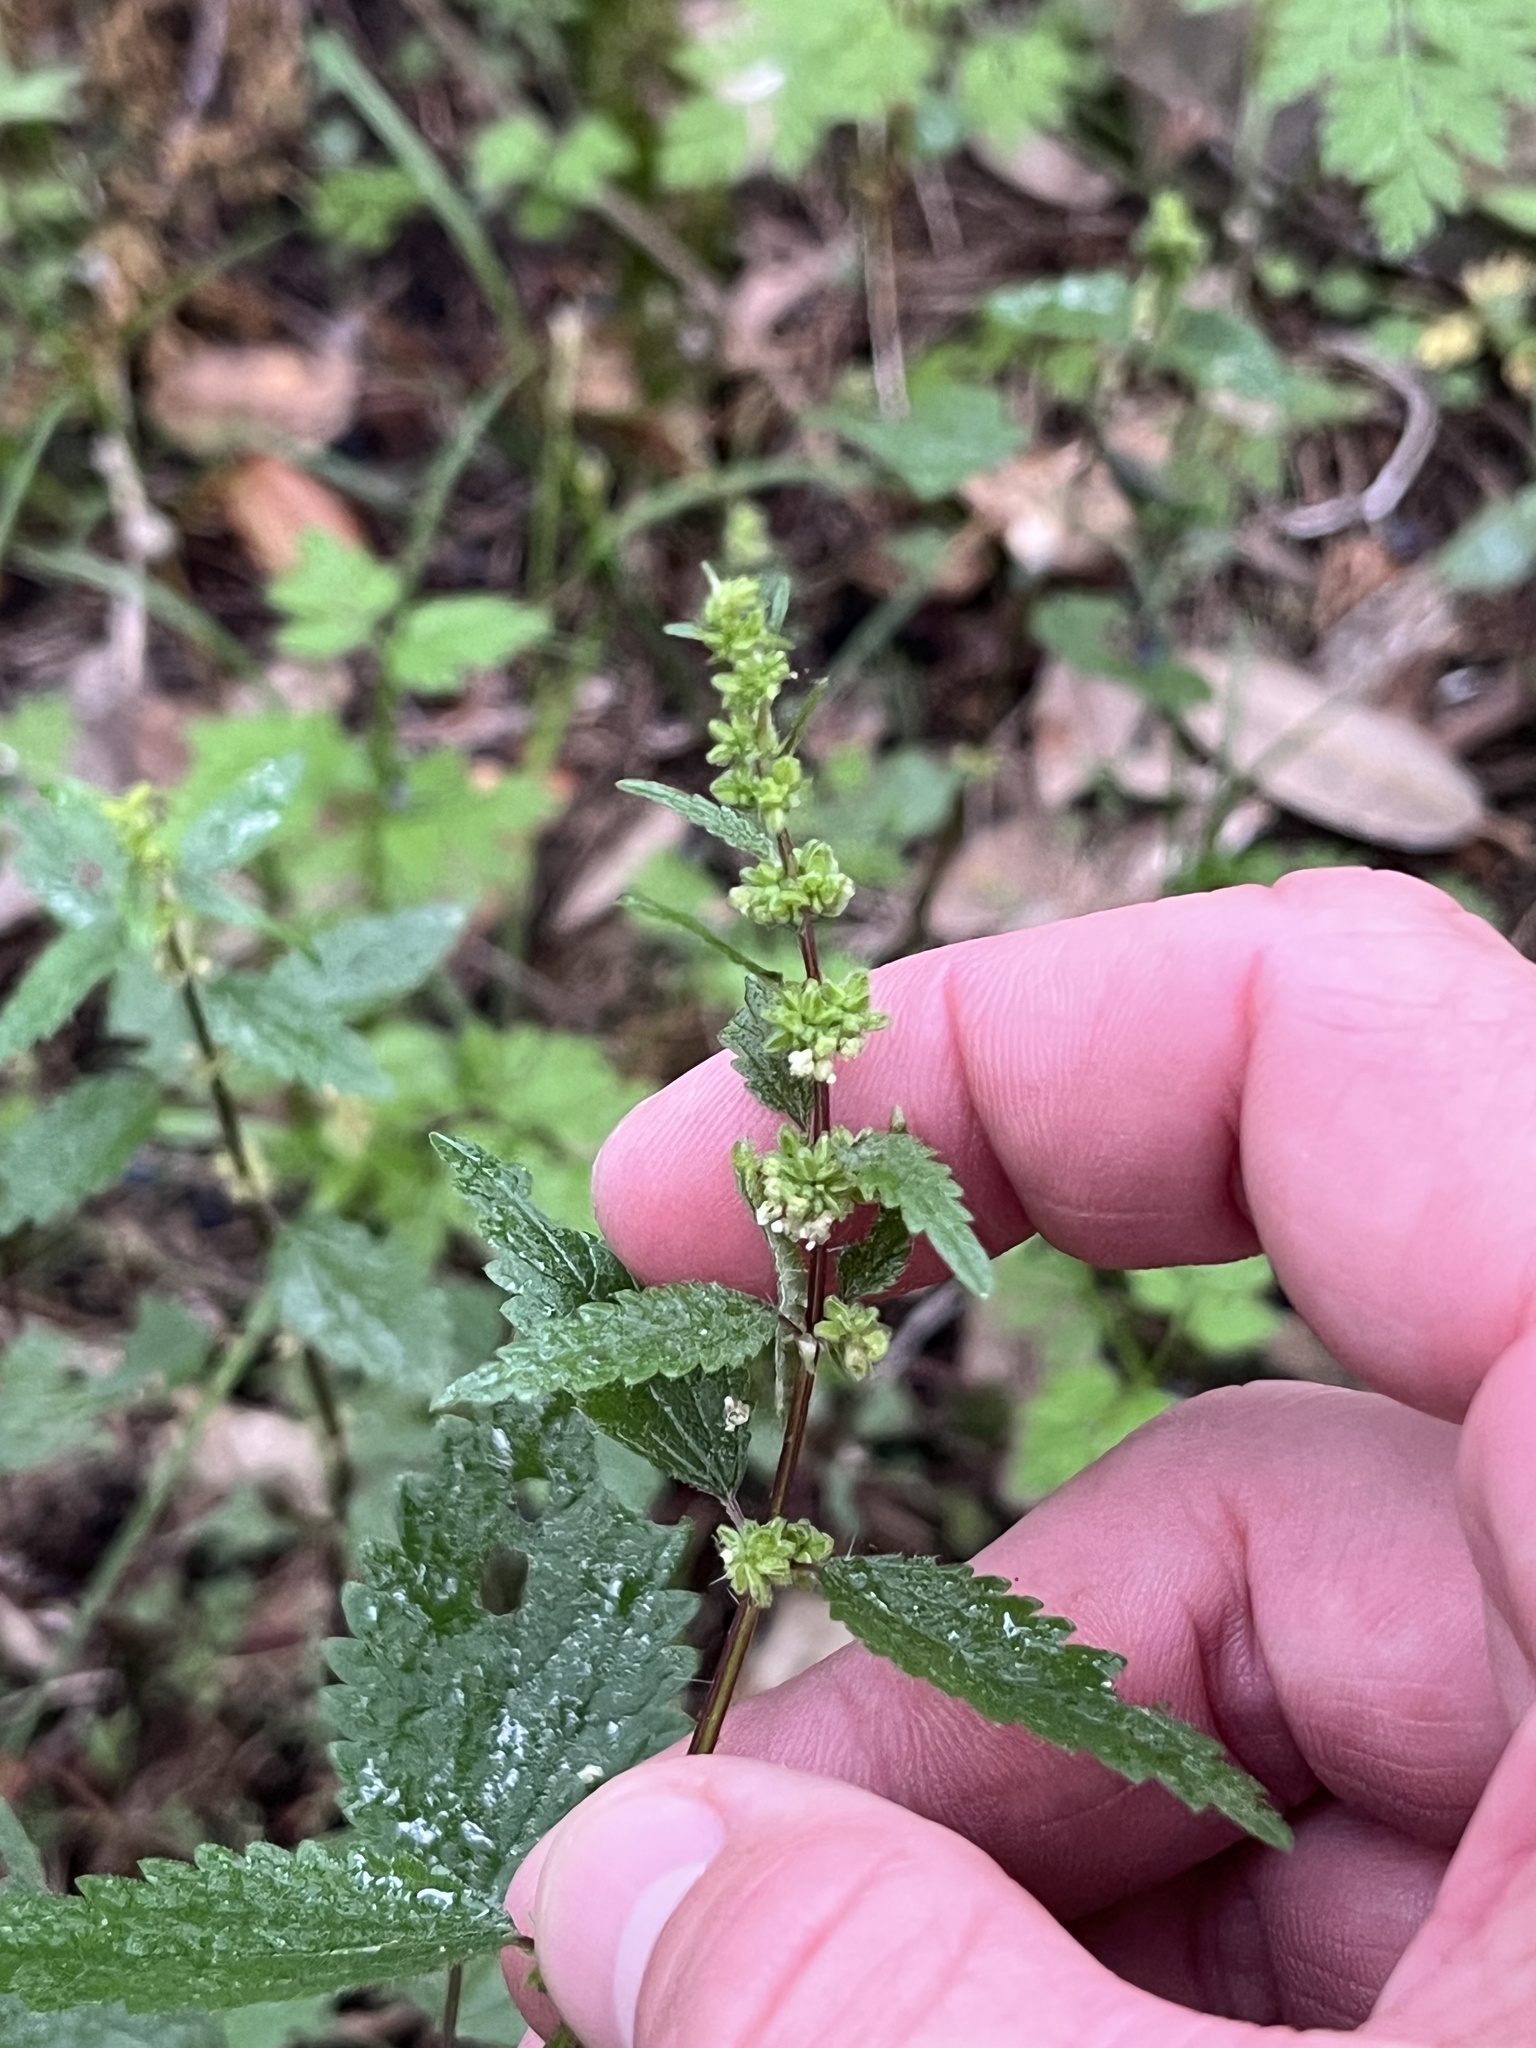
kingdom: Plantae
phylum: Tracheophyta
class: Magnoliopsida
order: Rosales
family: Urticaceae
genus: Urtica
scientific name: Urtica chamaedryoides
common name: Heart-leaf nettle
